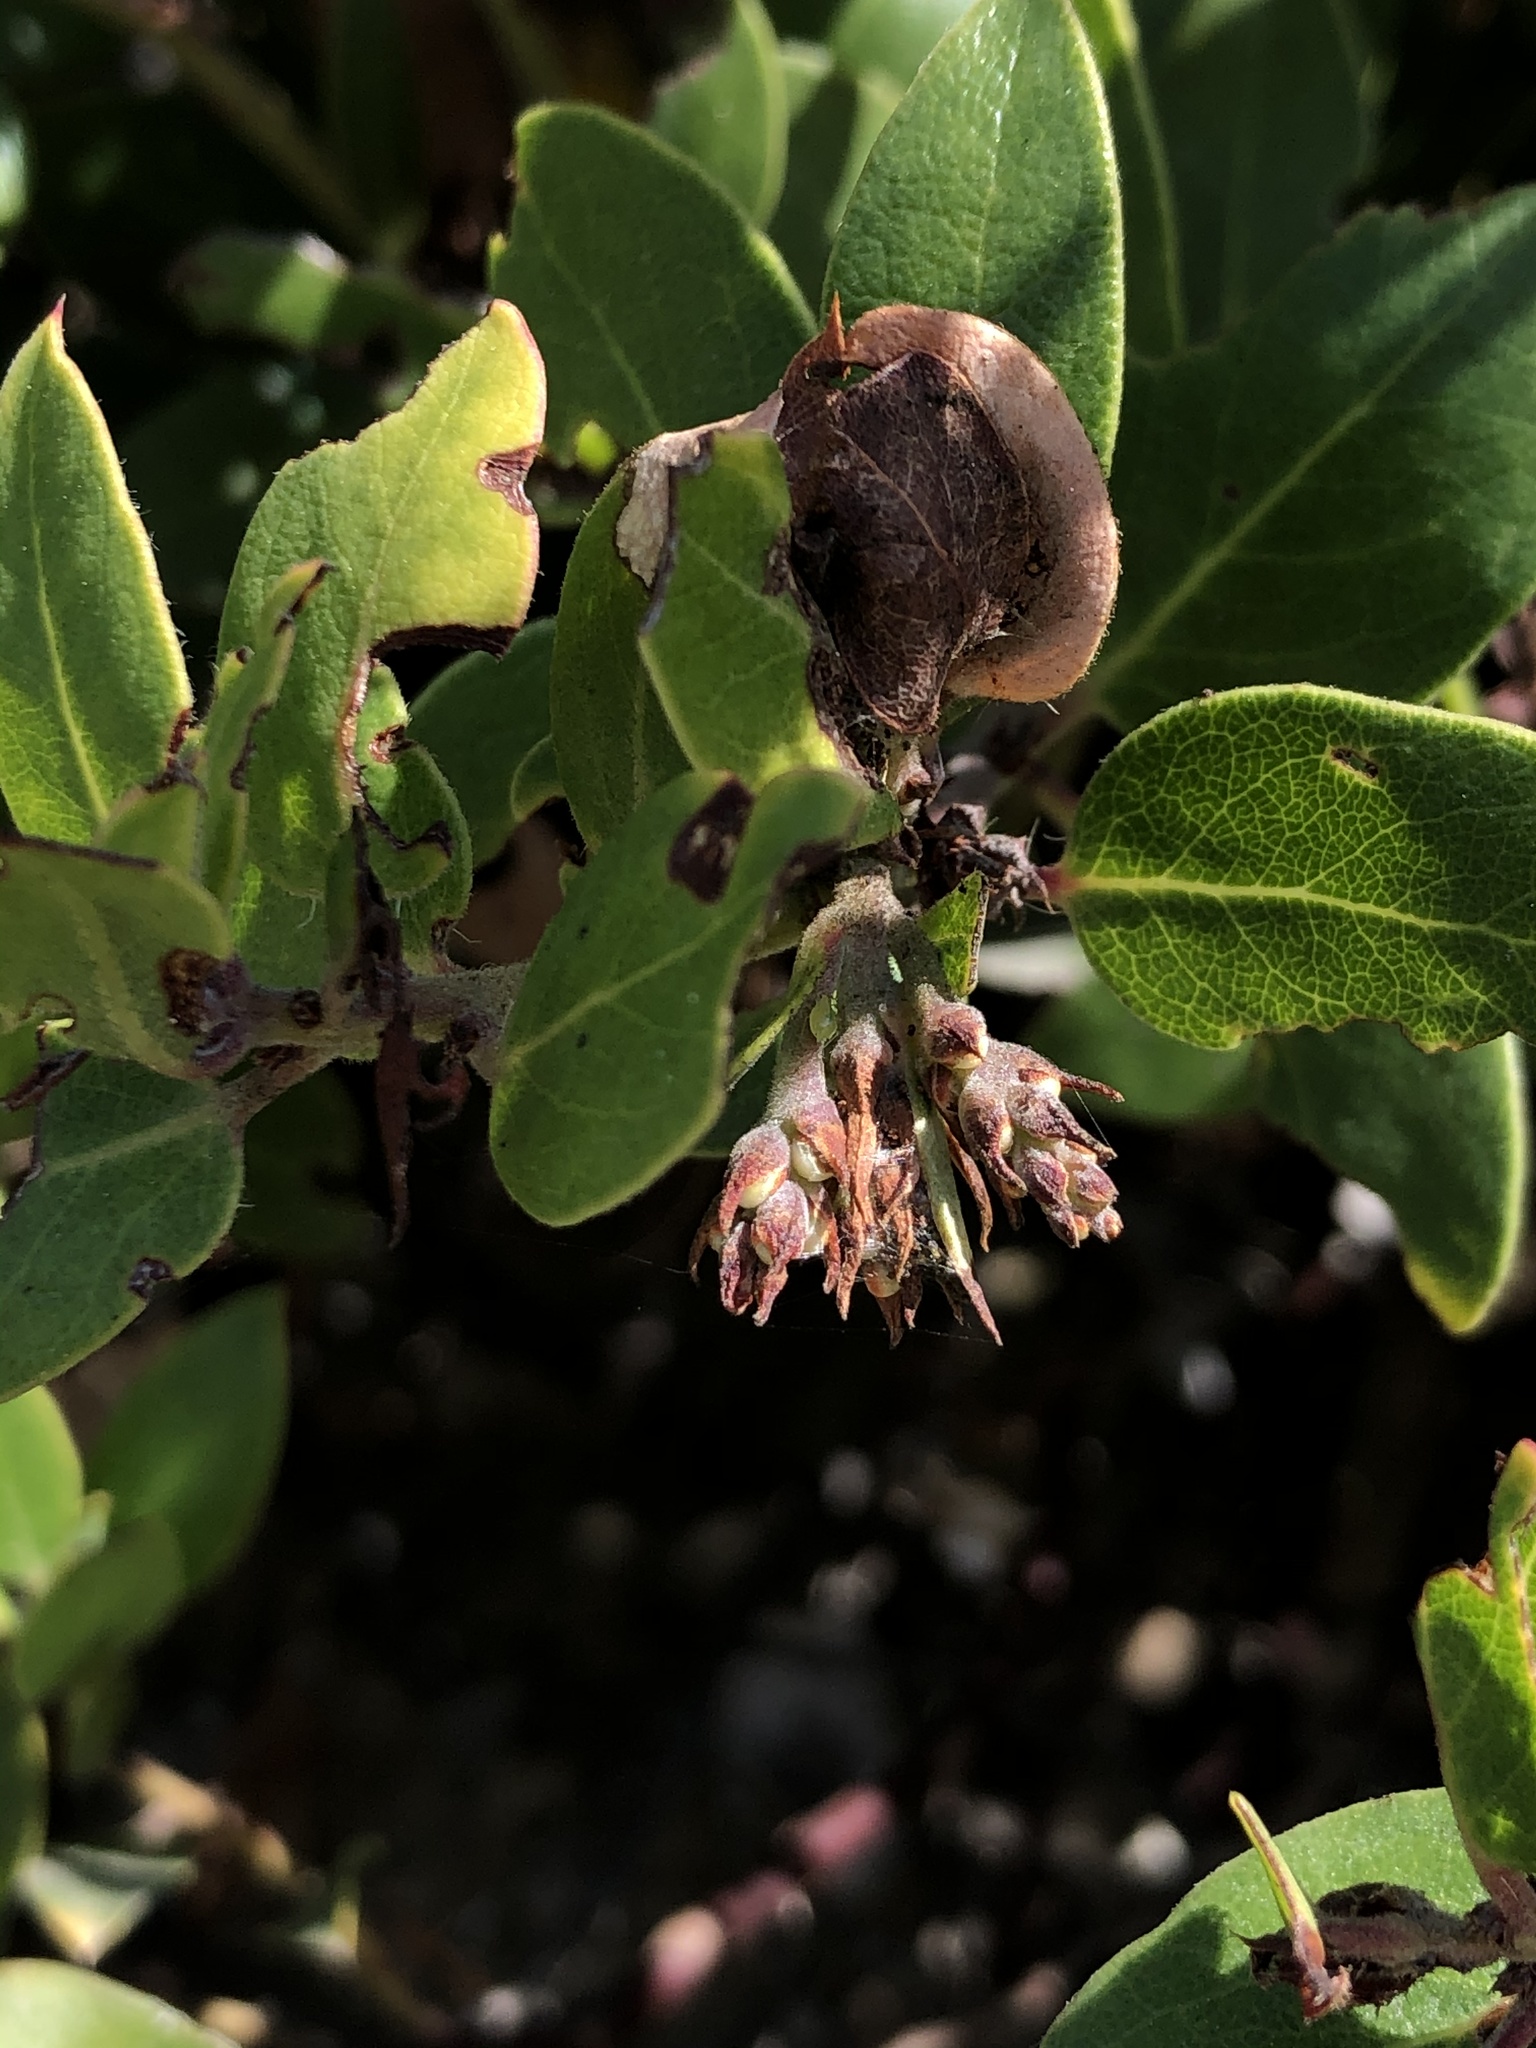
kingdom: Plantae
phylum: Tracheophyta
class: Magnoliopsida
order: Ericales
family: Ericaceae
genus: Arctostaphylos
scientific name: Arctostaphylos crustacea
